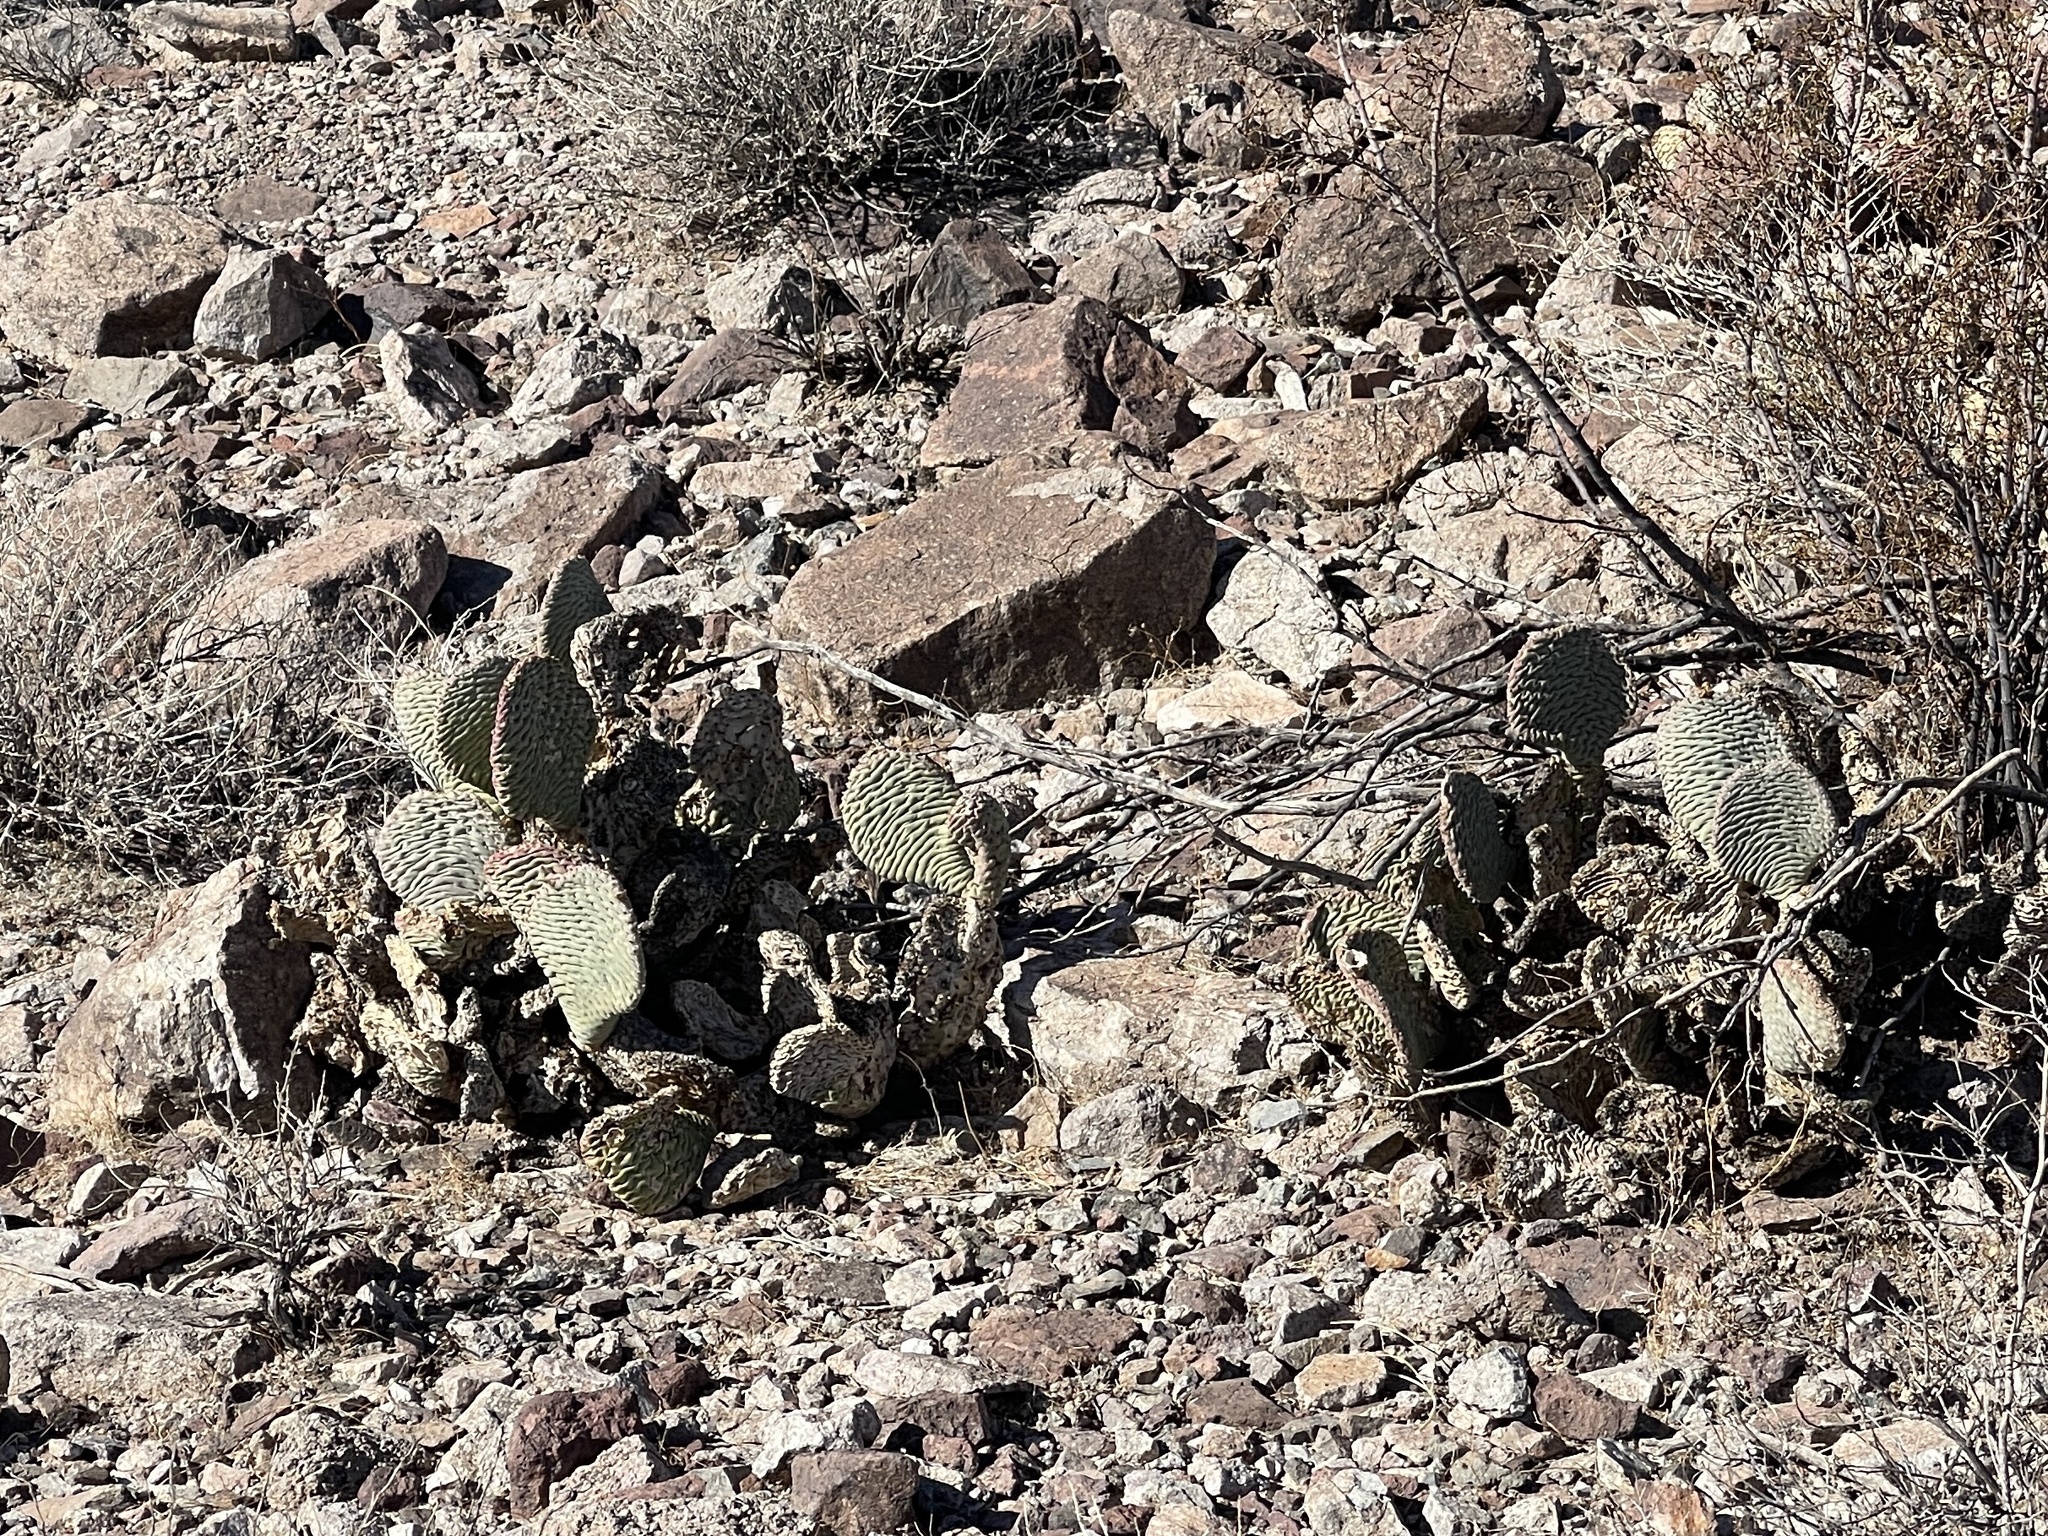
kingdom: Plantae
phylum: Tracheophyta
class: Magnoliopsida
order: Caryophyllales
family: Cactaceae
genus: Opuntia
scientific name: Opuntia basilaris
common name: Beavertail prickly-pear
